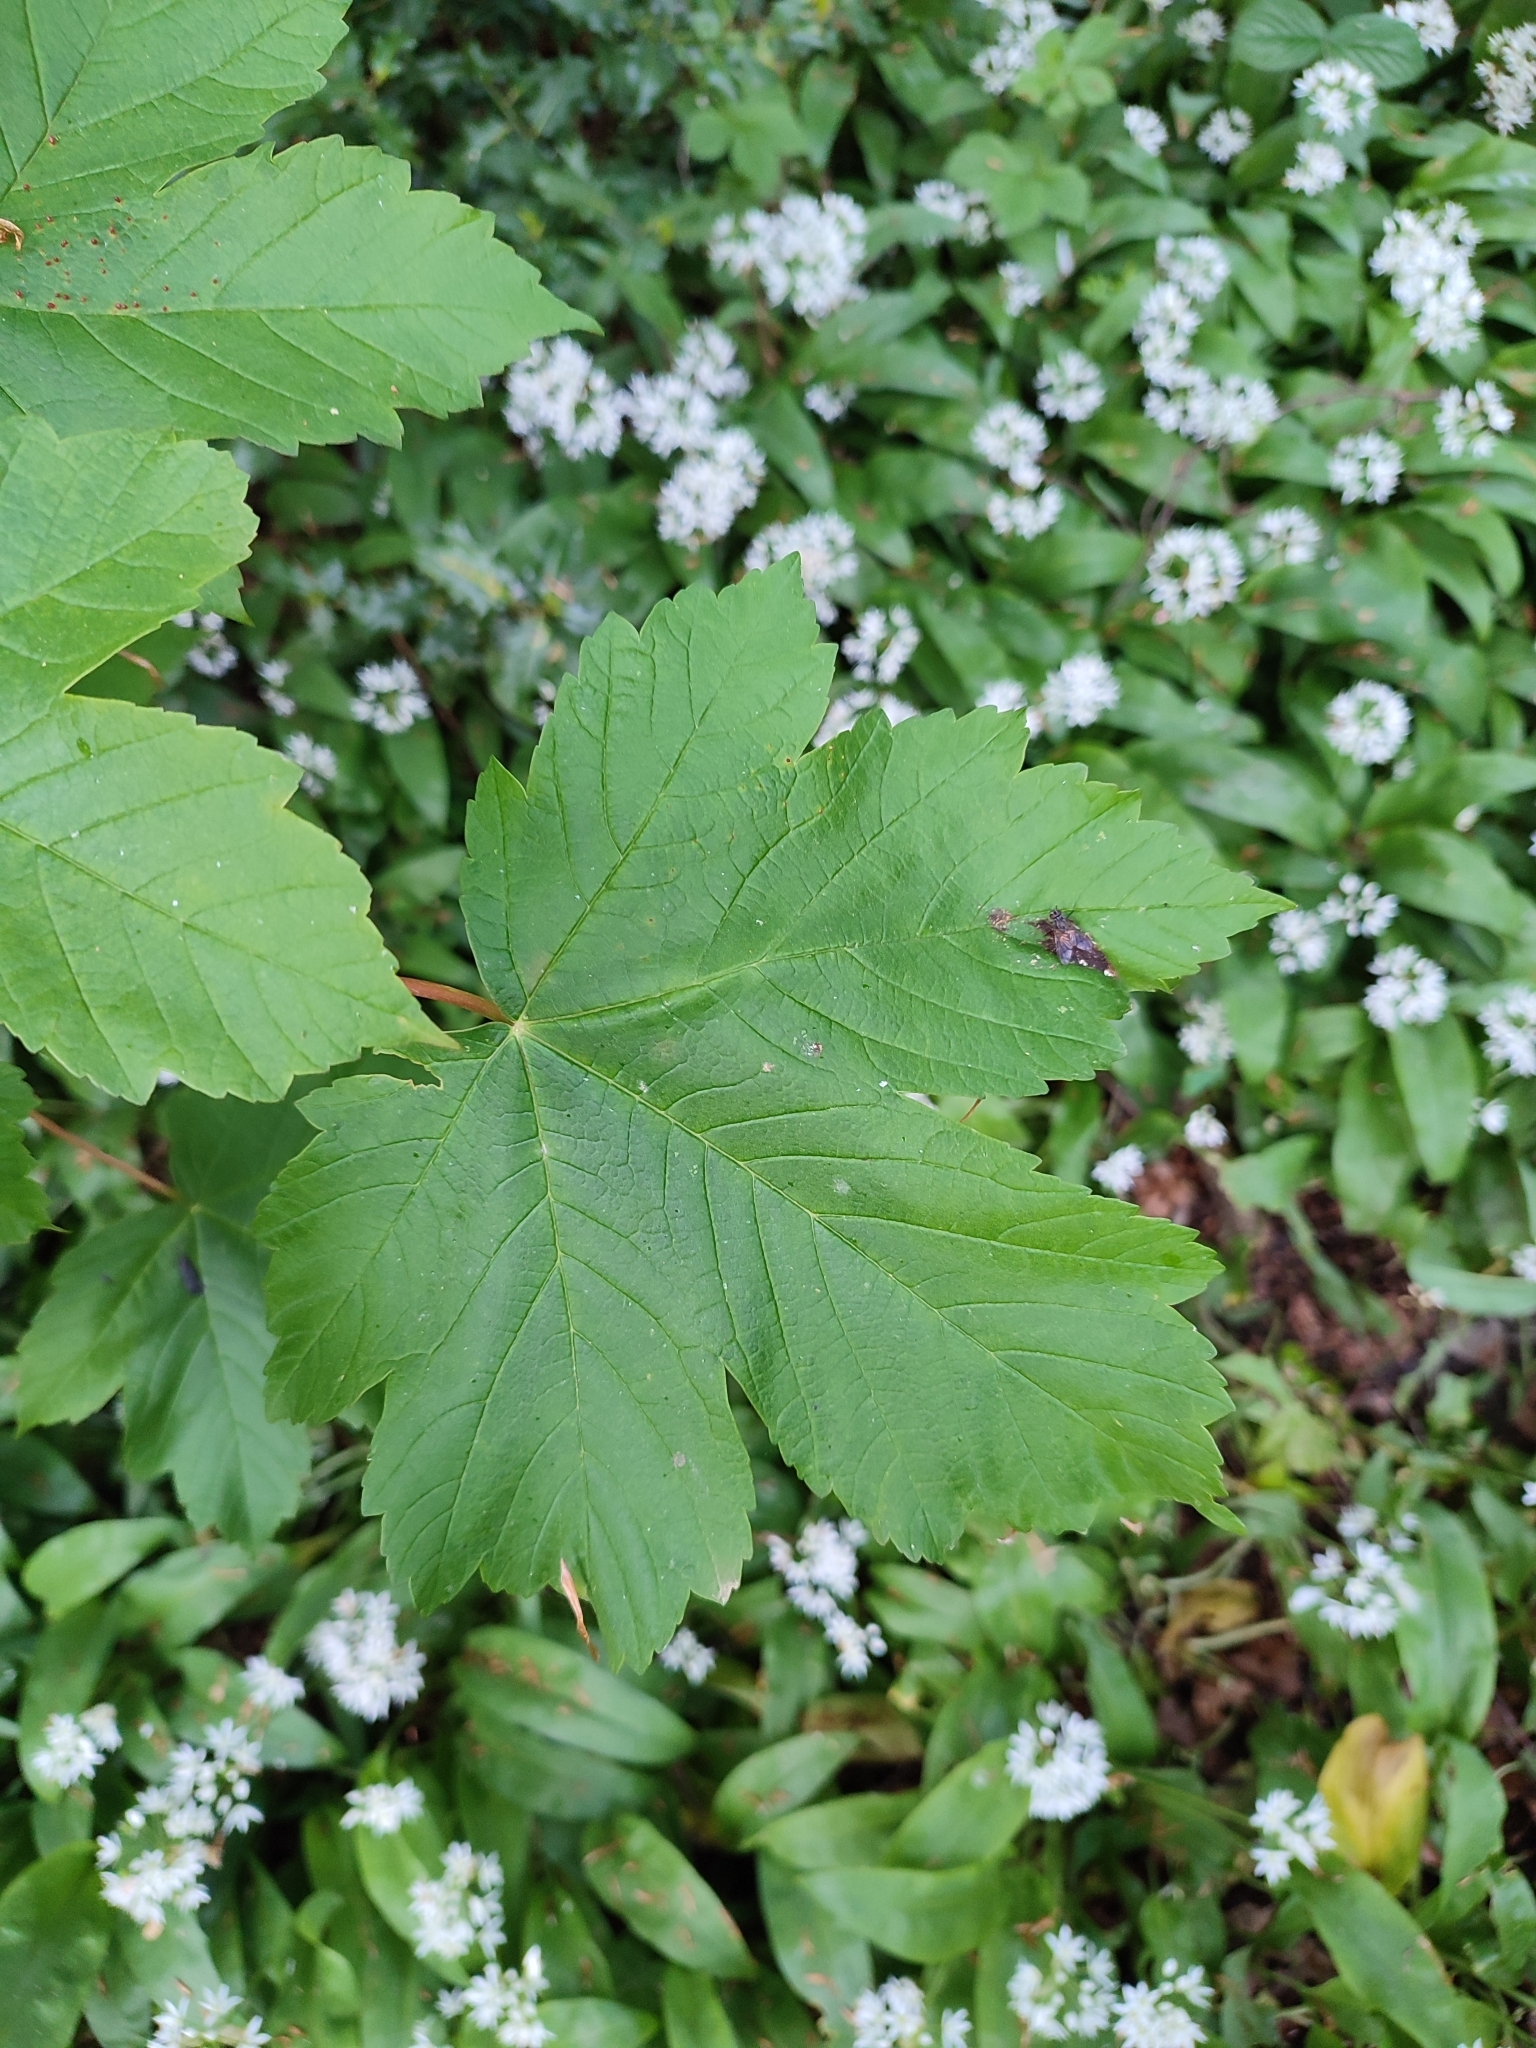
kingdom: Plantae
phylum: Tracheophyta
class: Magnoliopsida
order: Sapindales
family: Sapindaceae
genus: Acer
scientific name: Acer pseudoplatanus
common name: Sycamore
